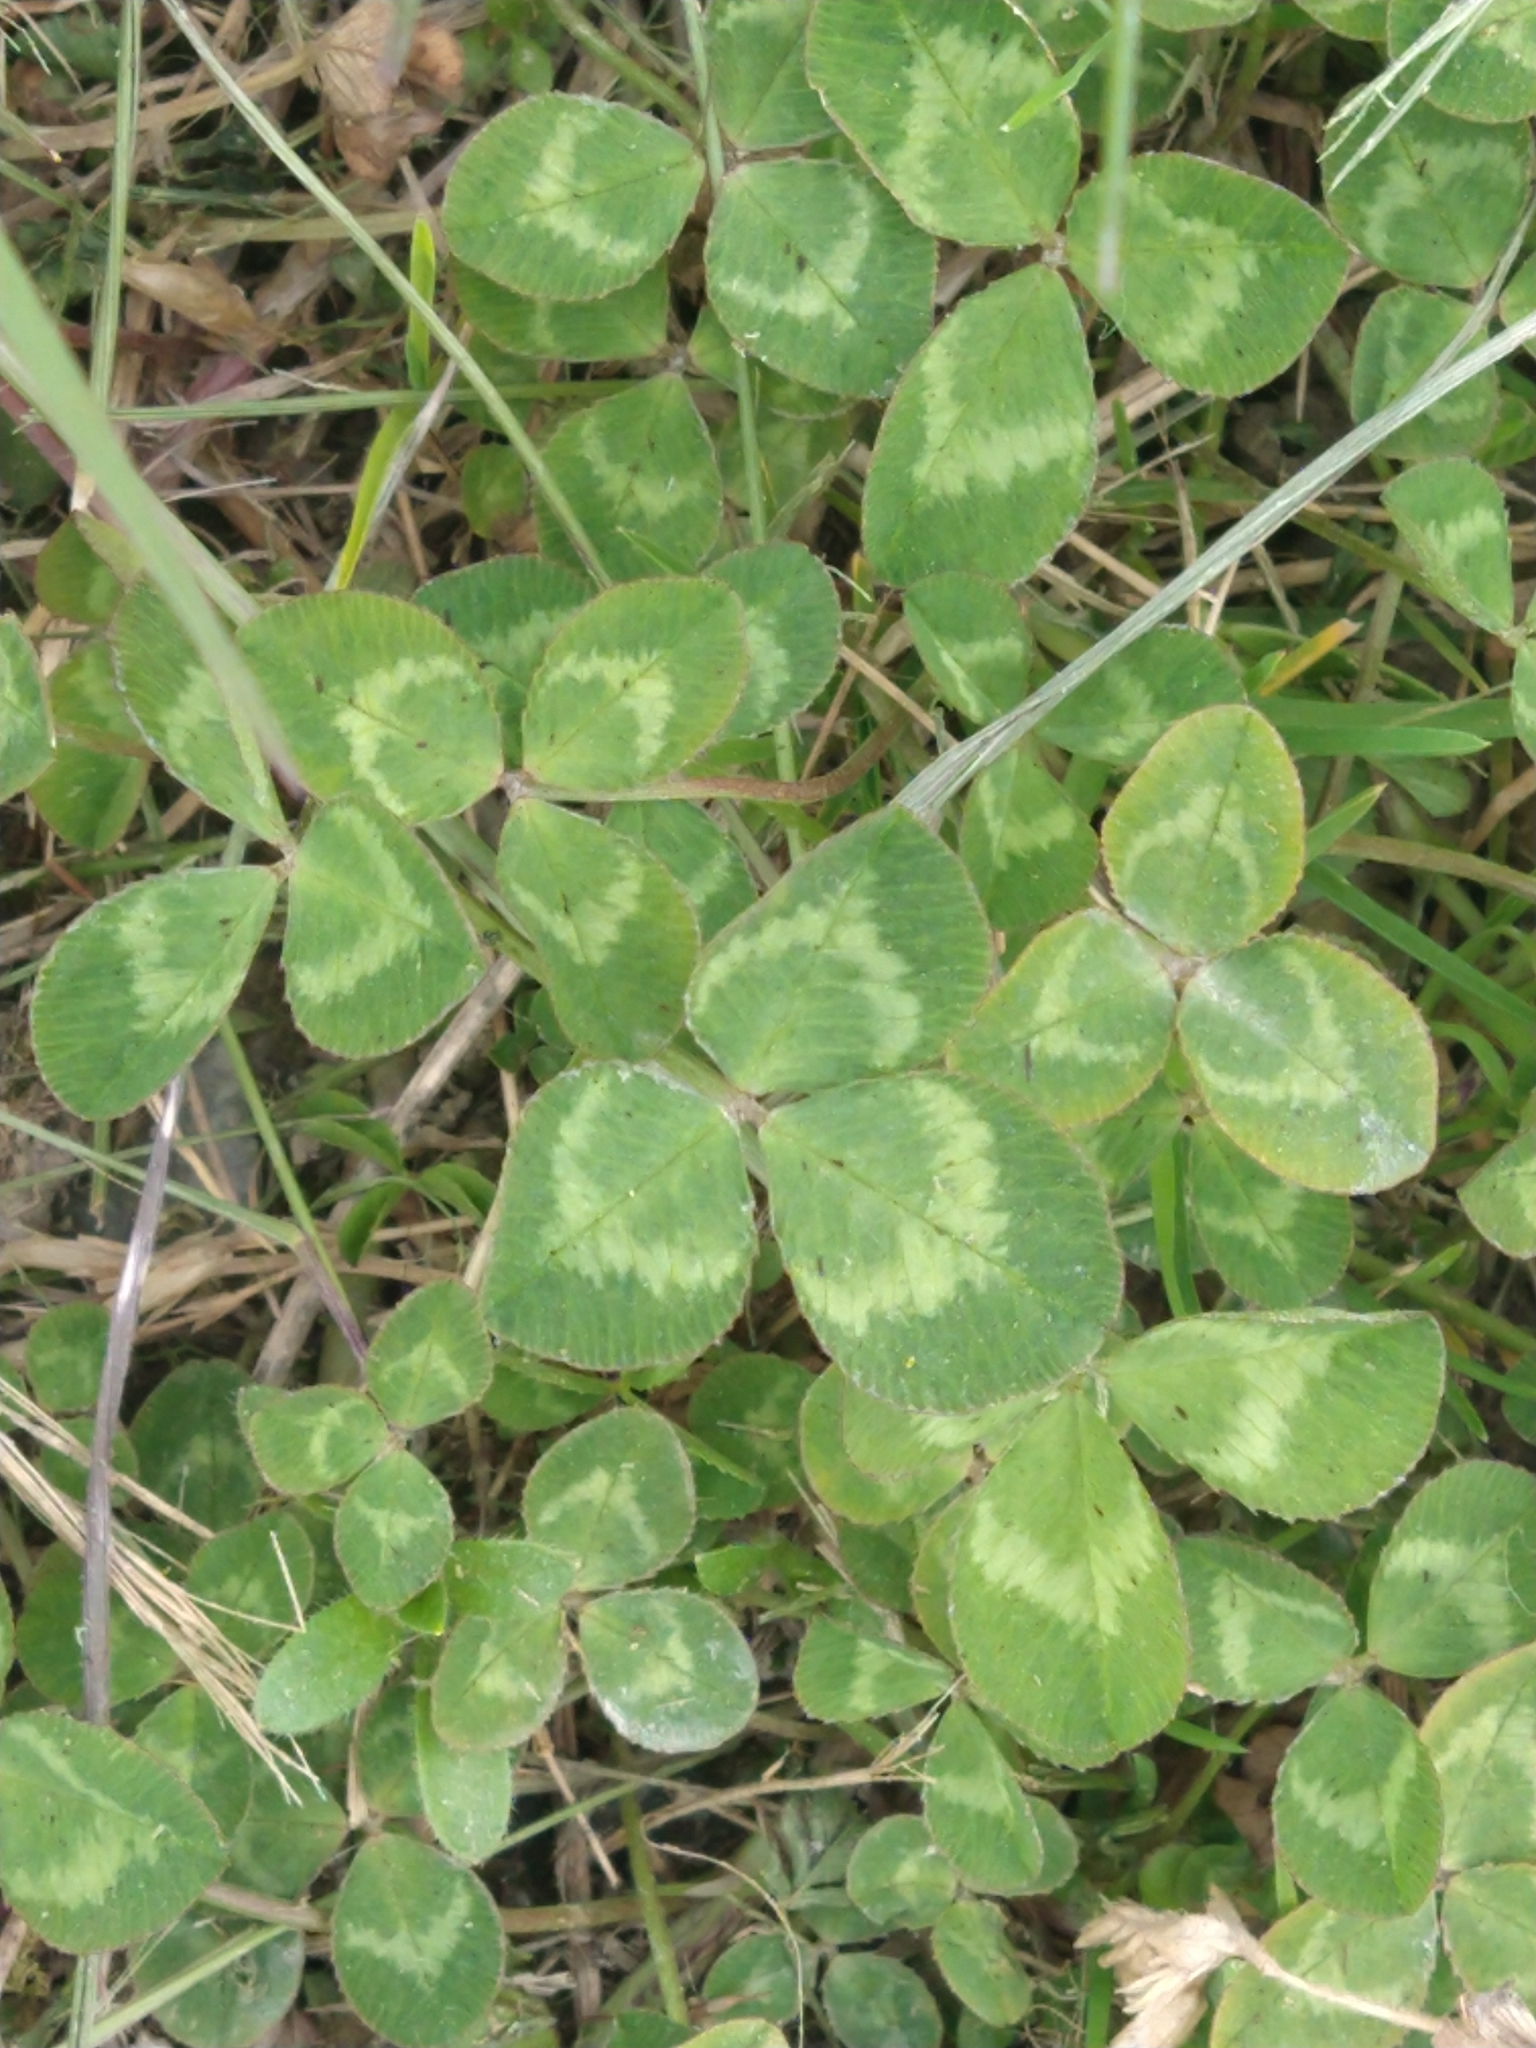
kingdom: Plantae
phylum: Tracheophyta
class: Magnoliopsida
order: Fabales
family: Fabaceae
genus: Trifolium
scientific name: Trifolium repens
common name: White clover
